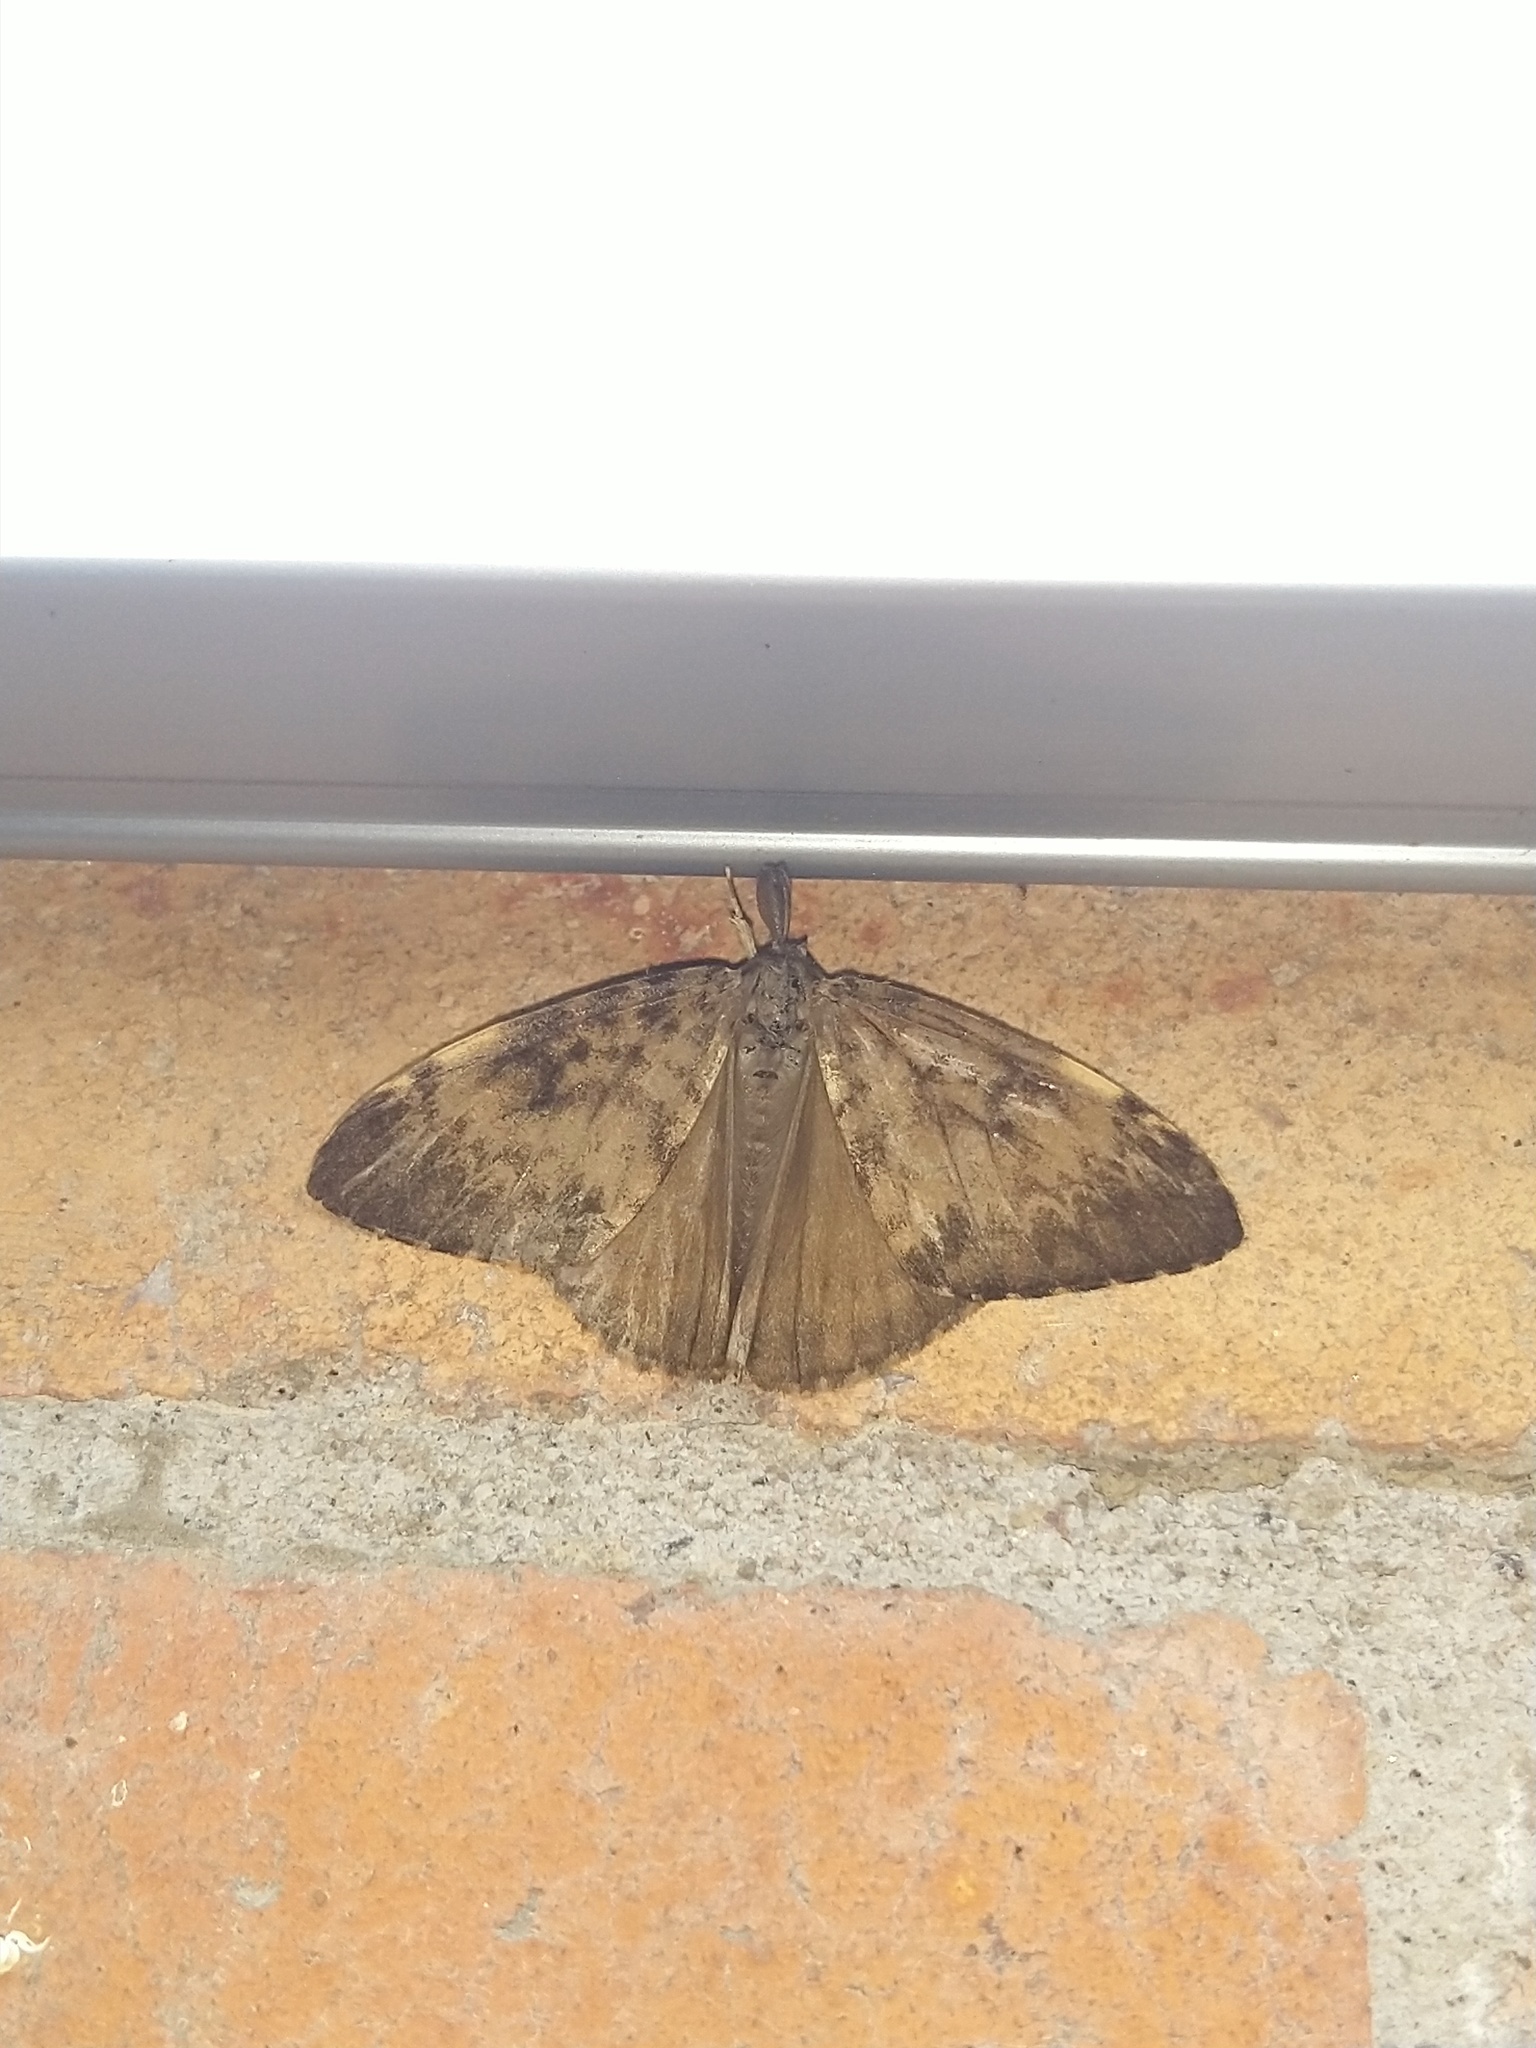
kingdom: Animalia
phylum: Arthropoda
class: Insecta
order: Lepidoptera
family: Erebidae
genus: Lymantria
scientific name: Lymantria ampla
